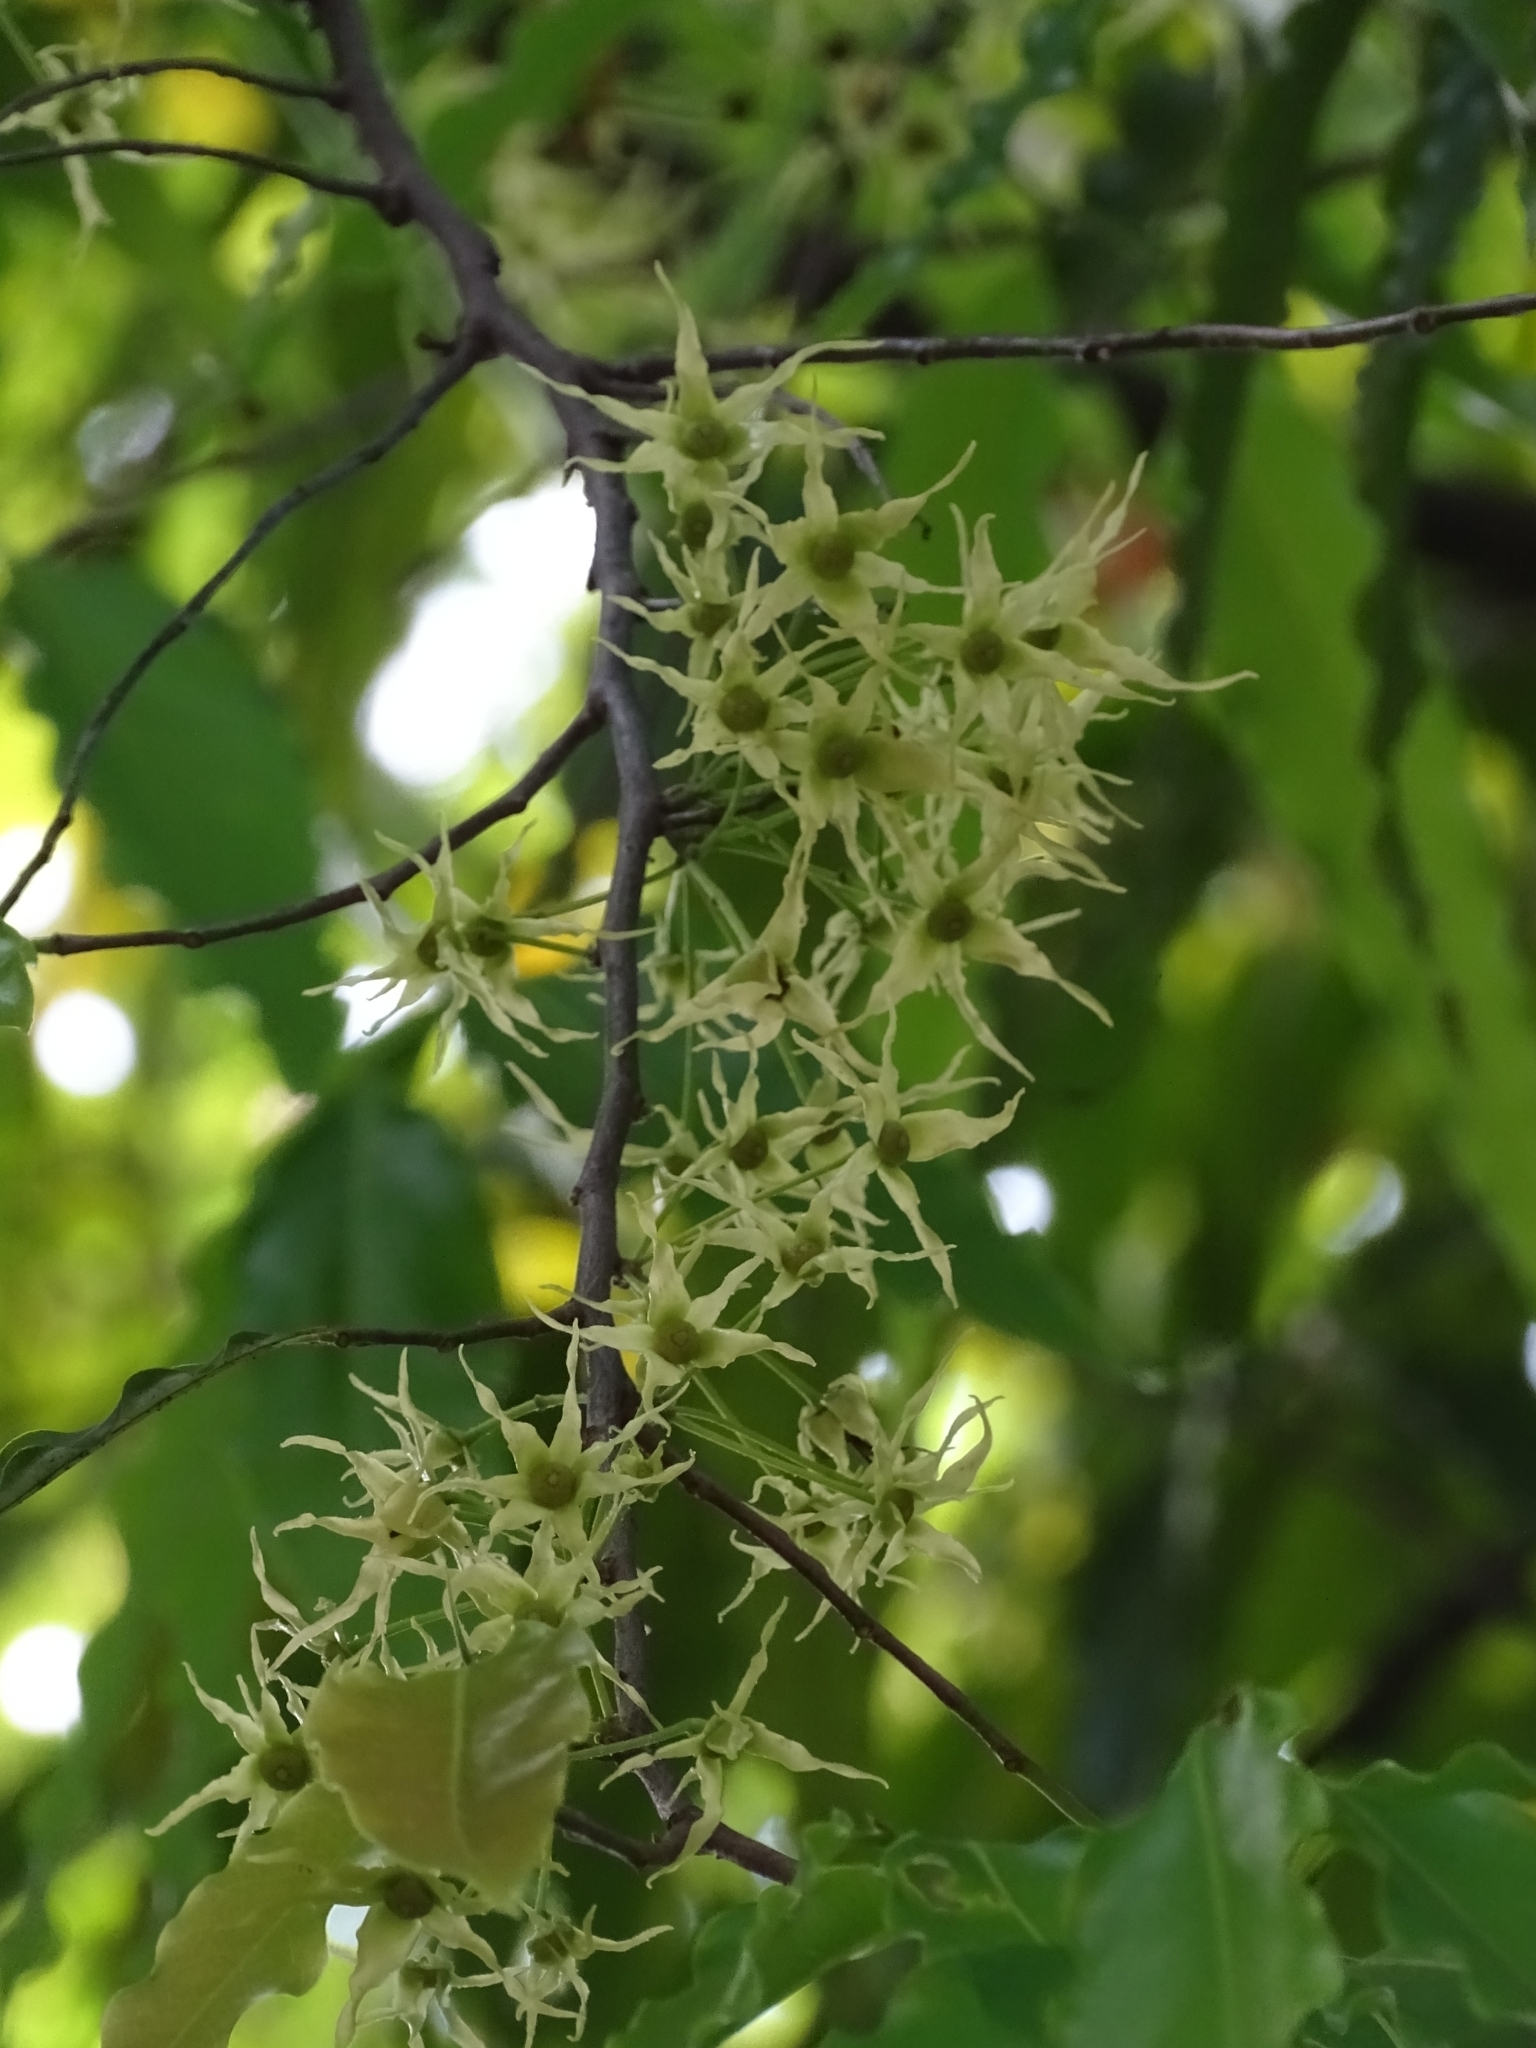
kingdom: Plantae
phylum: Tracheophyta
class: Magnoliopsida
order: Magnoliales
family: Annonaceae
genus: Polyalthia
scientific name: Polyalthia longifolia
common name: Cemetery-tree
